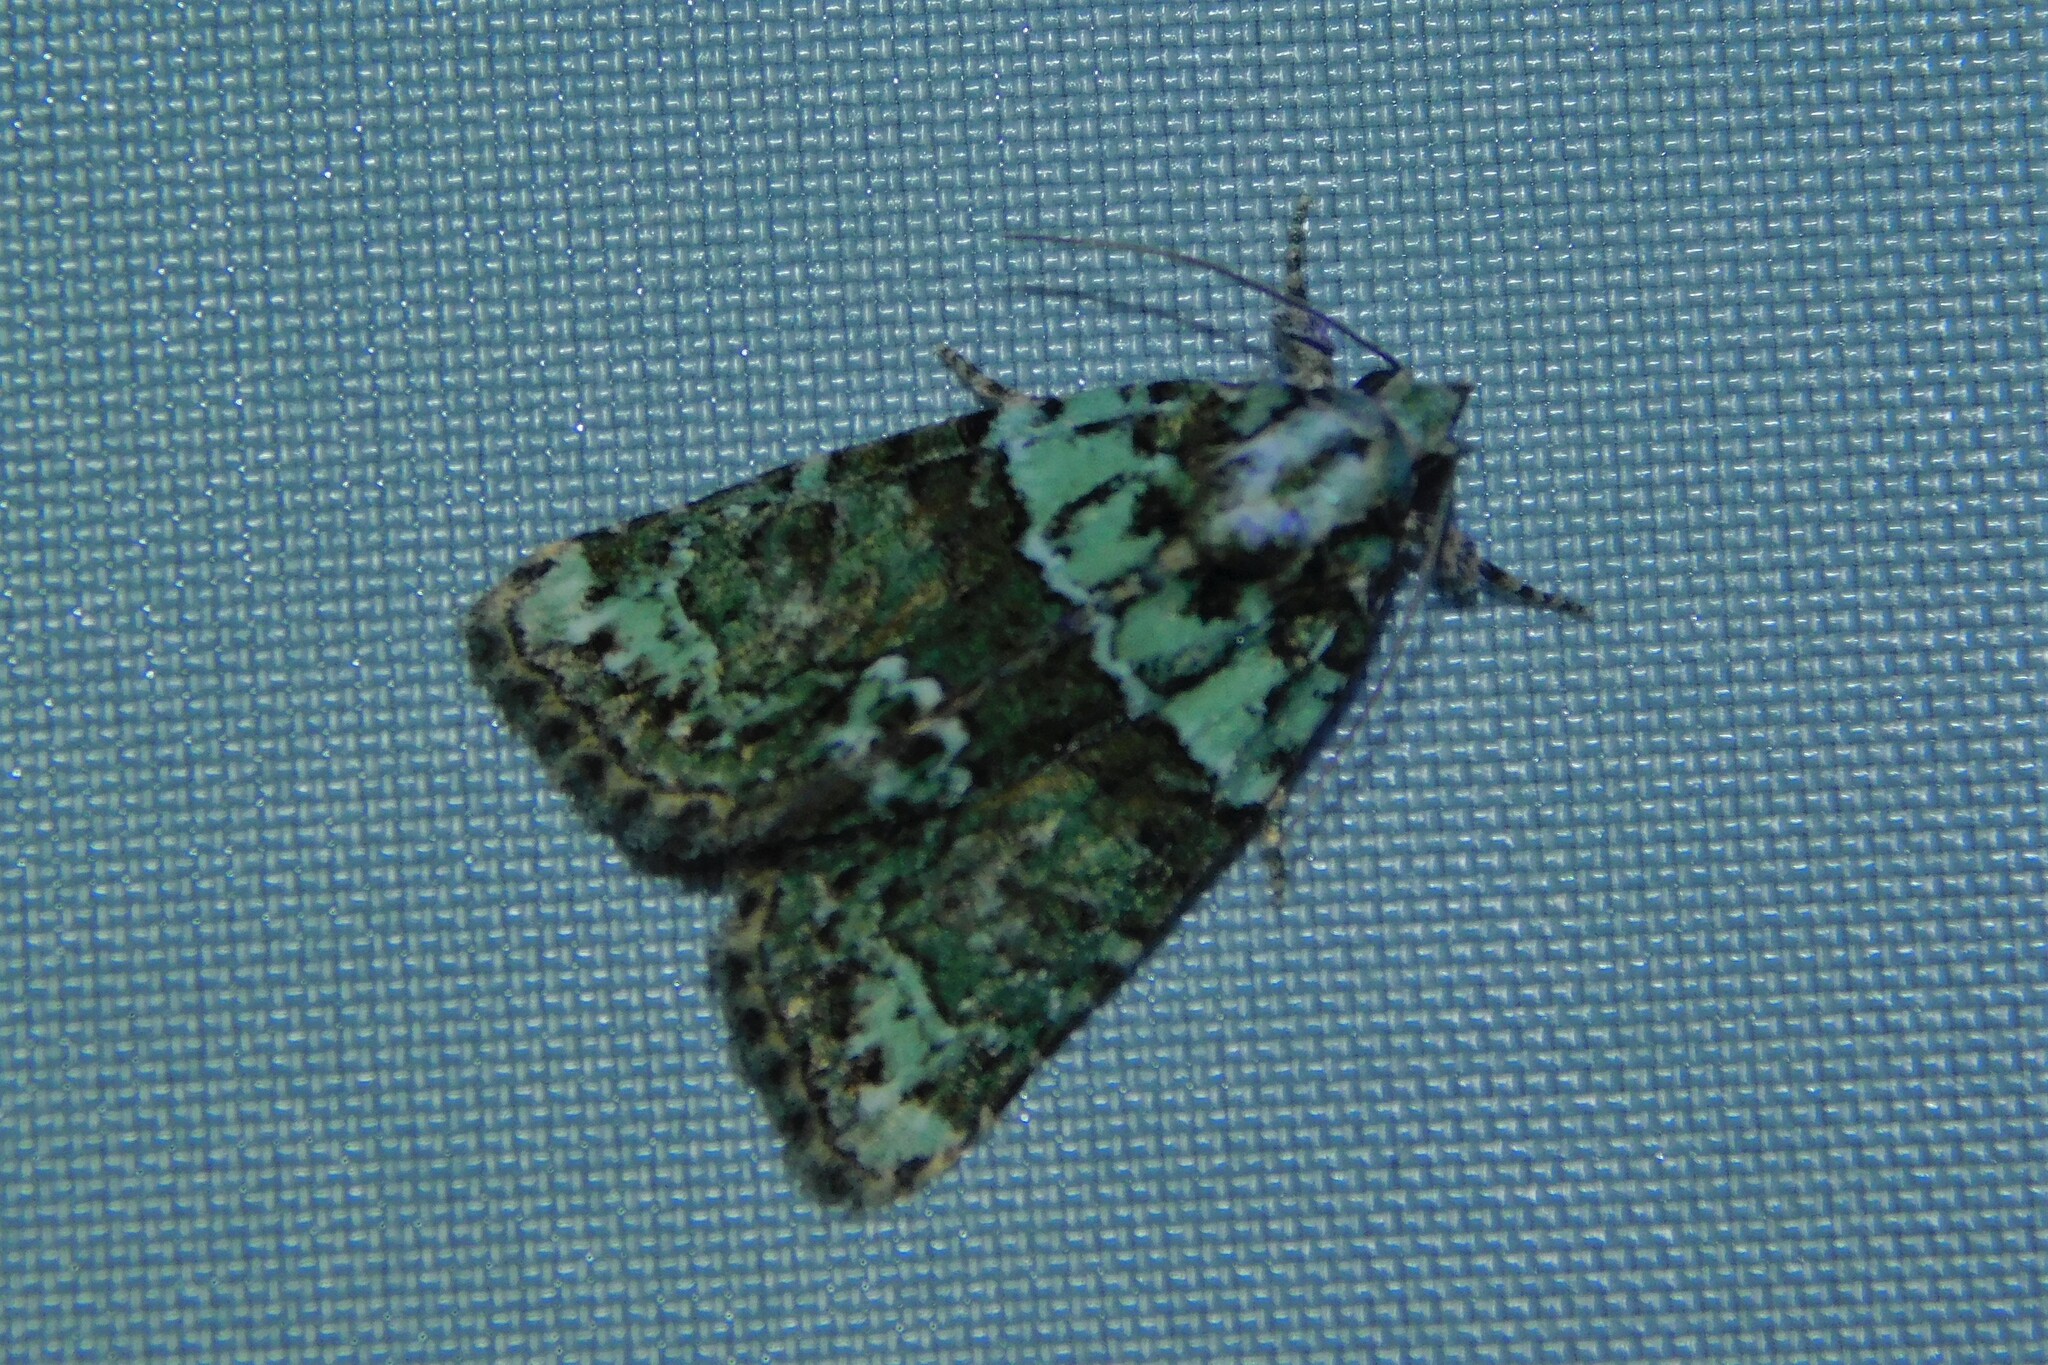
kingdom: Animalia
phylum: Arthropoda
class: Insecta
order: Lepidoptera
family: Noctuidae
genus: Cryphia
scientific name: Cryphia algae
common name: Tree-lichen beauty
